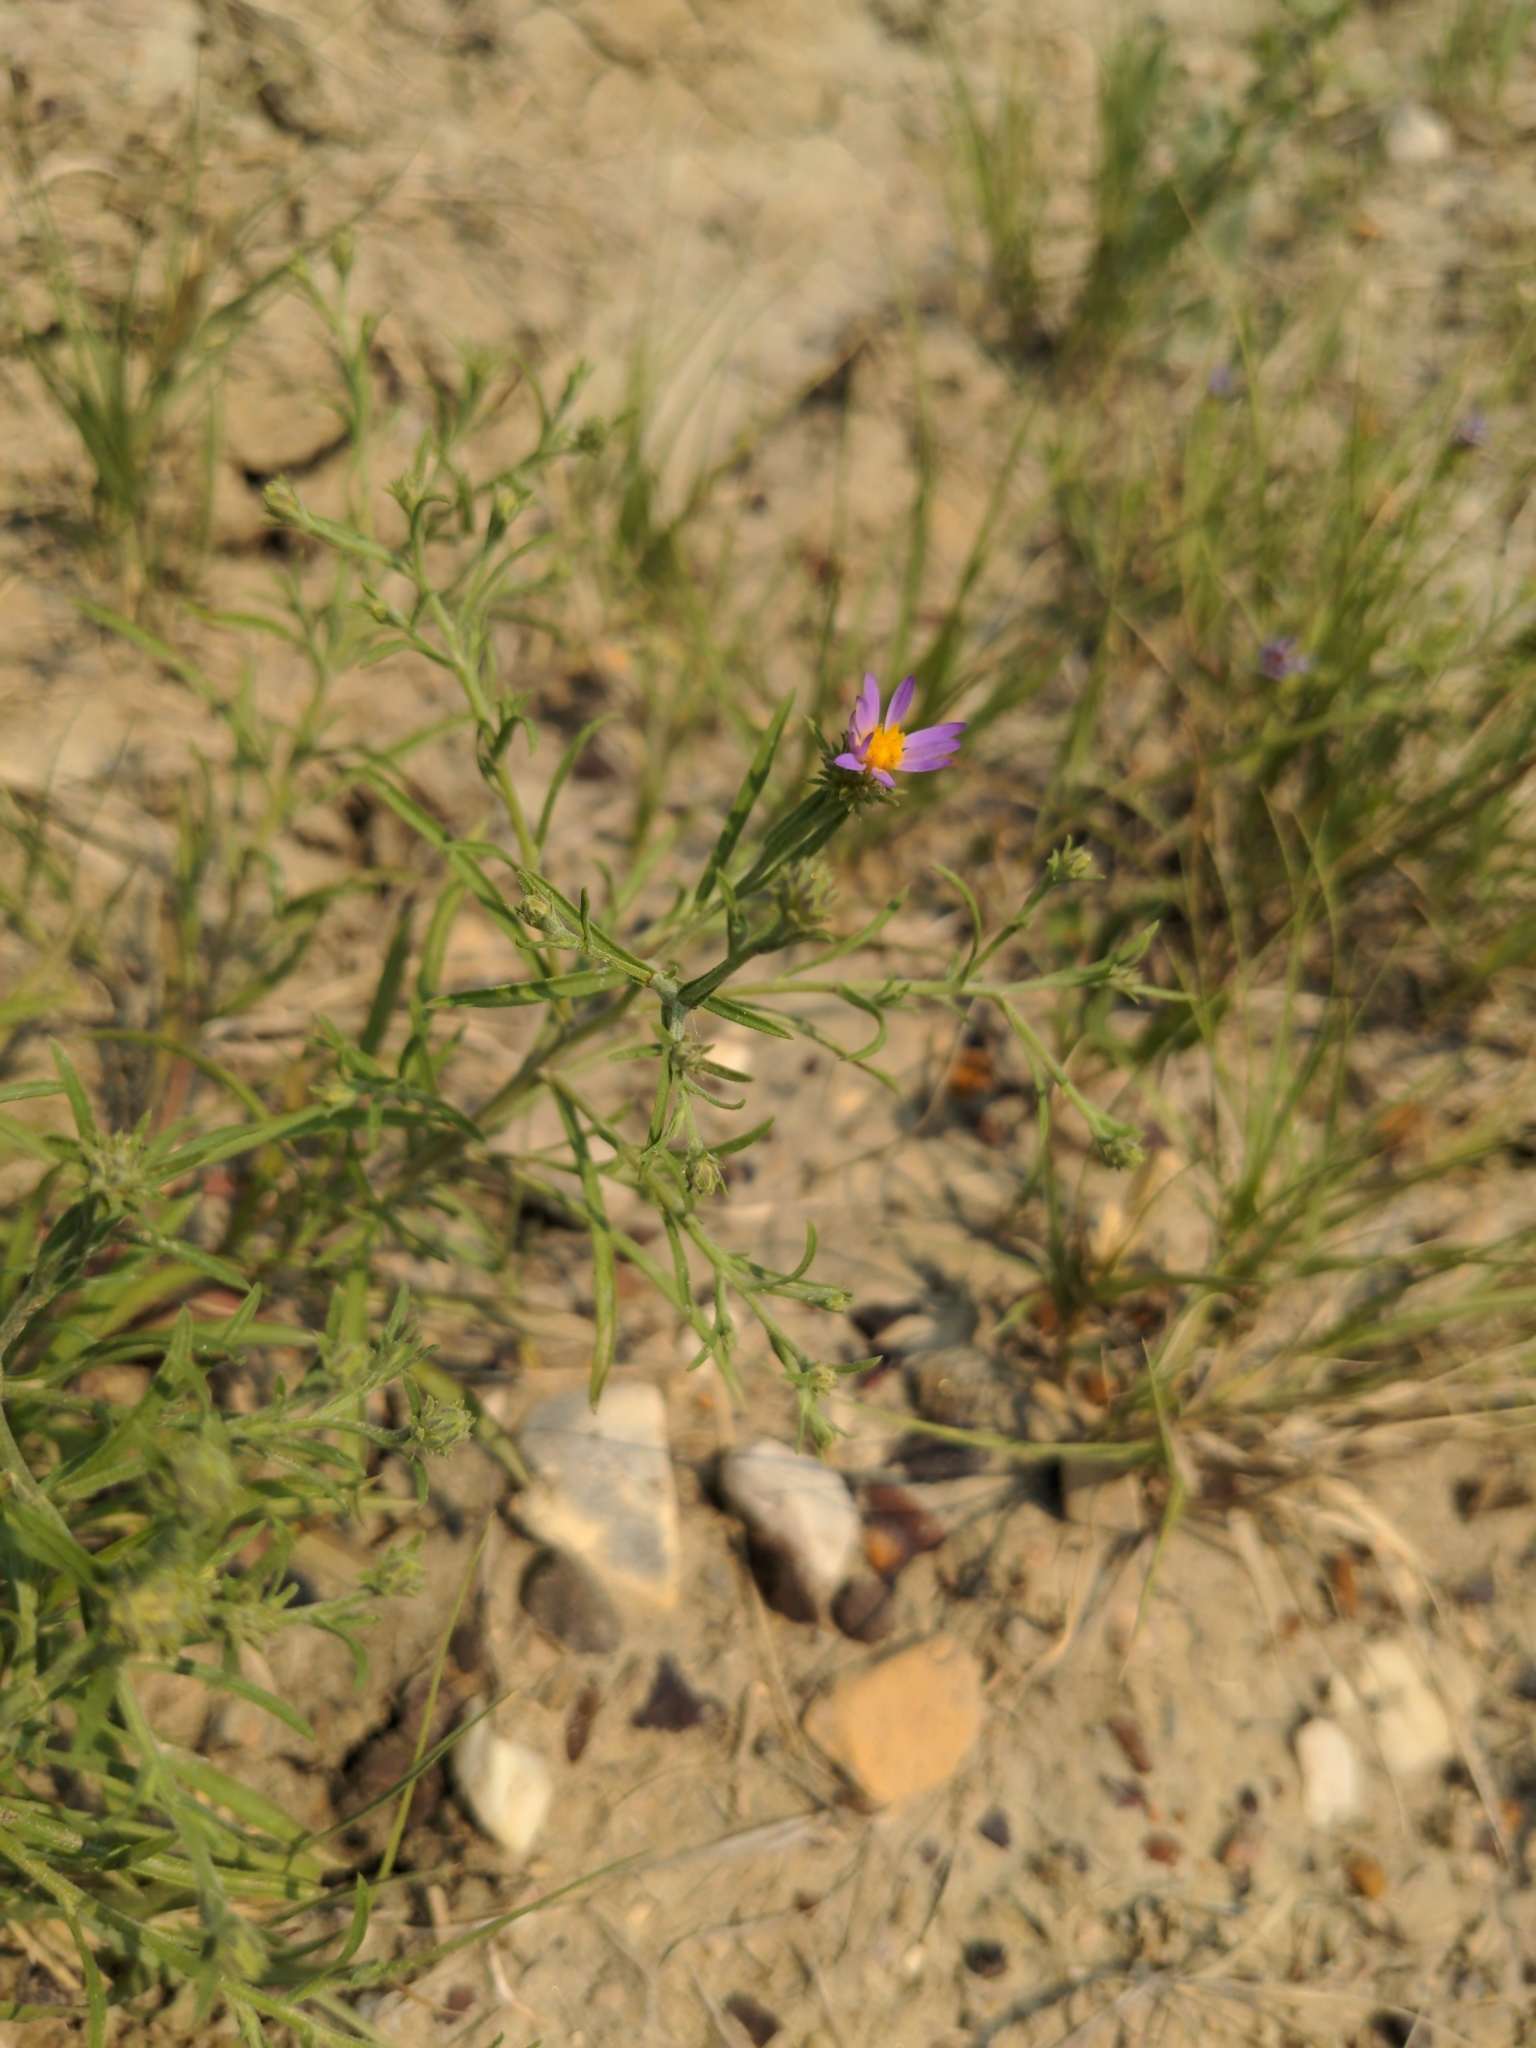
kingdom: Plantae
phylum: Tracheophyta
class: Magnoliopsida
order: Asterales
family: Asteraceae
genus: Dieteria
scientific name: Dieteria canescens
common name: Hoary-aster
